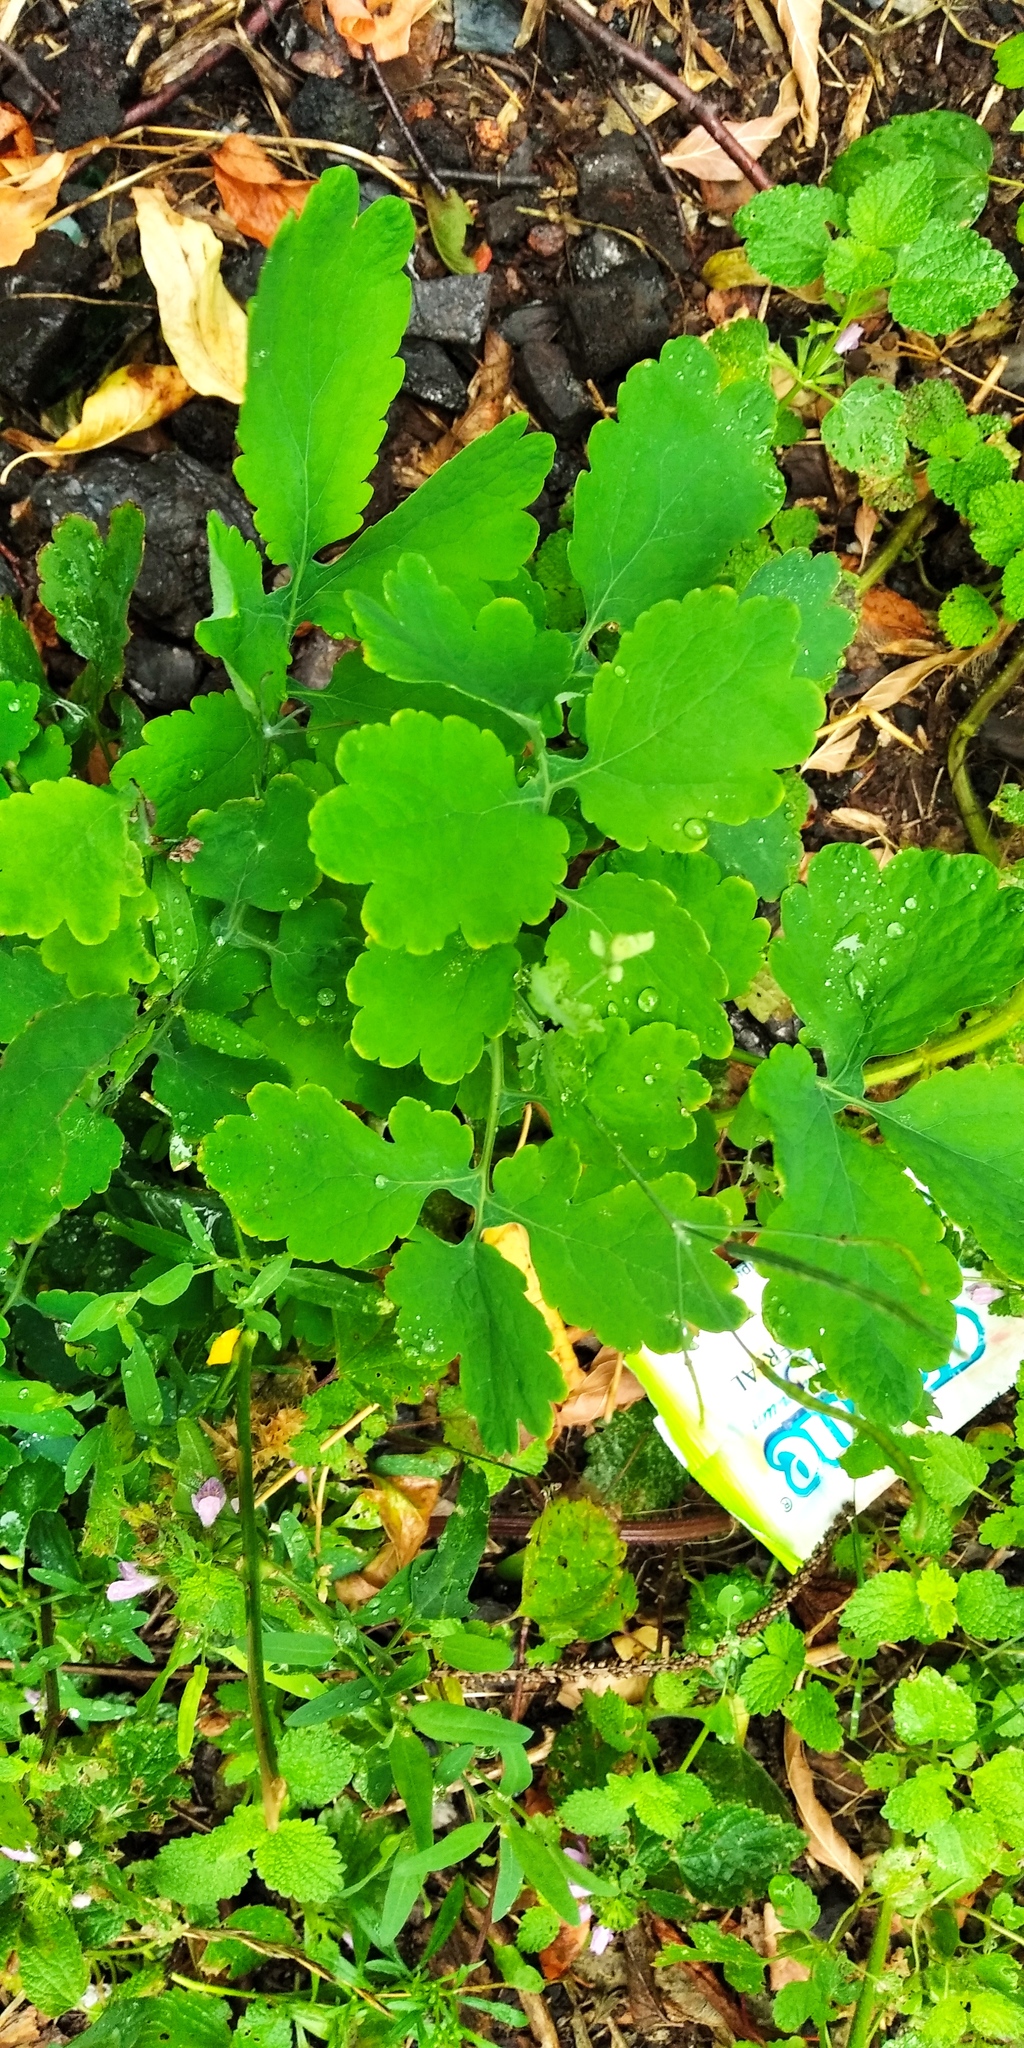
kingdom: Plantae
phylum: Tracheophyta
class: Magnoliopsida
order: Ranunculales
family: Papaveraceae
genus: Chelidonium
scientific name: Chelidonium majus
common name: Greater celandine
